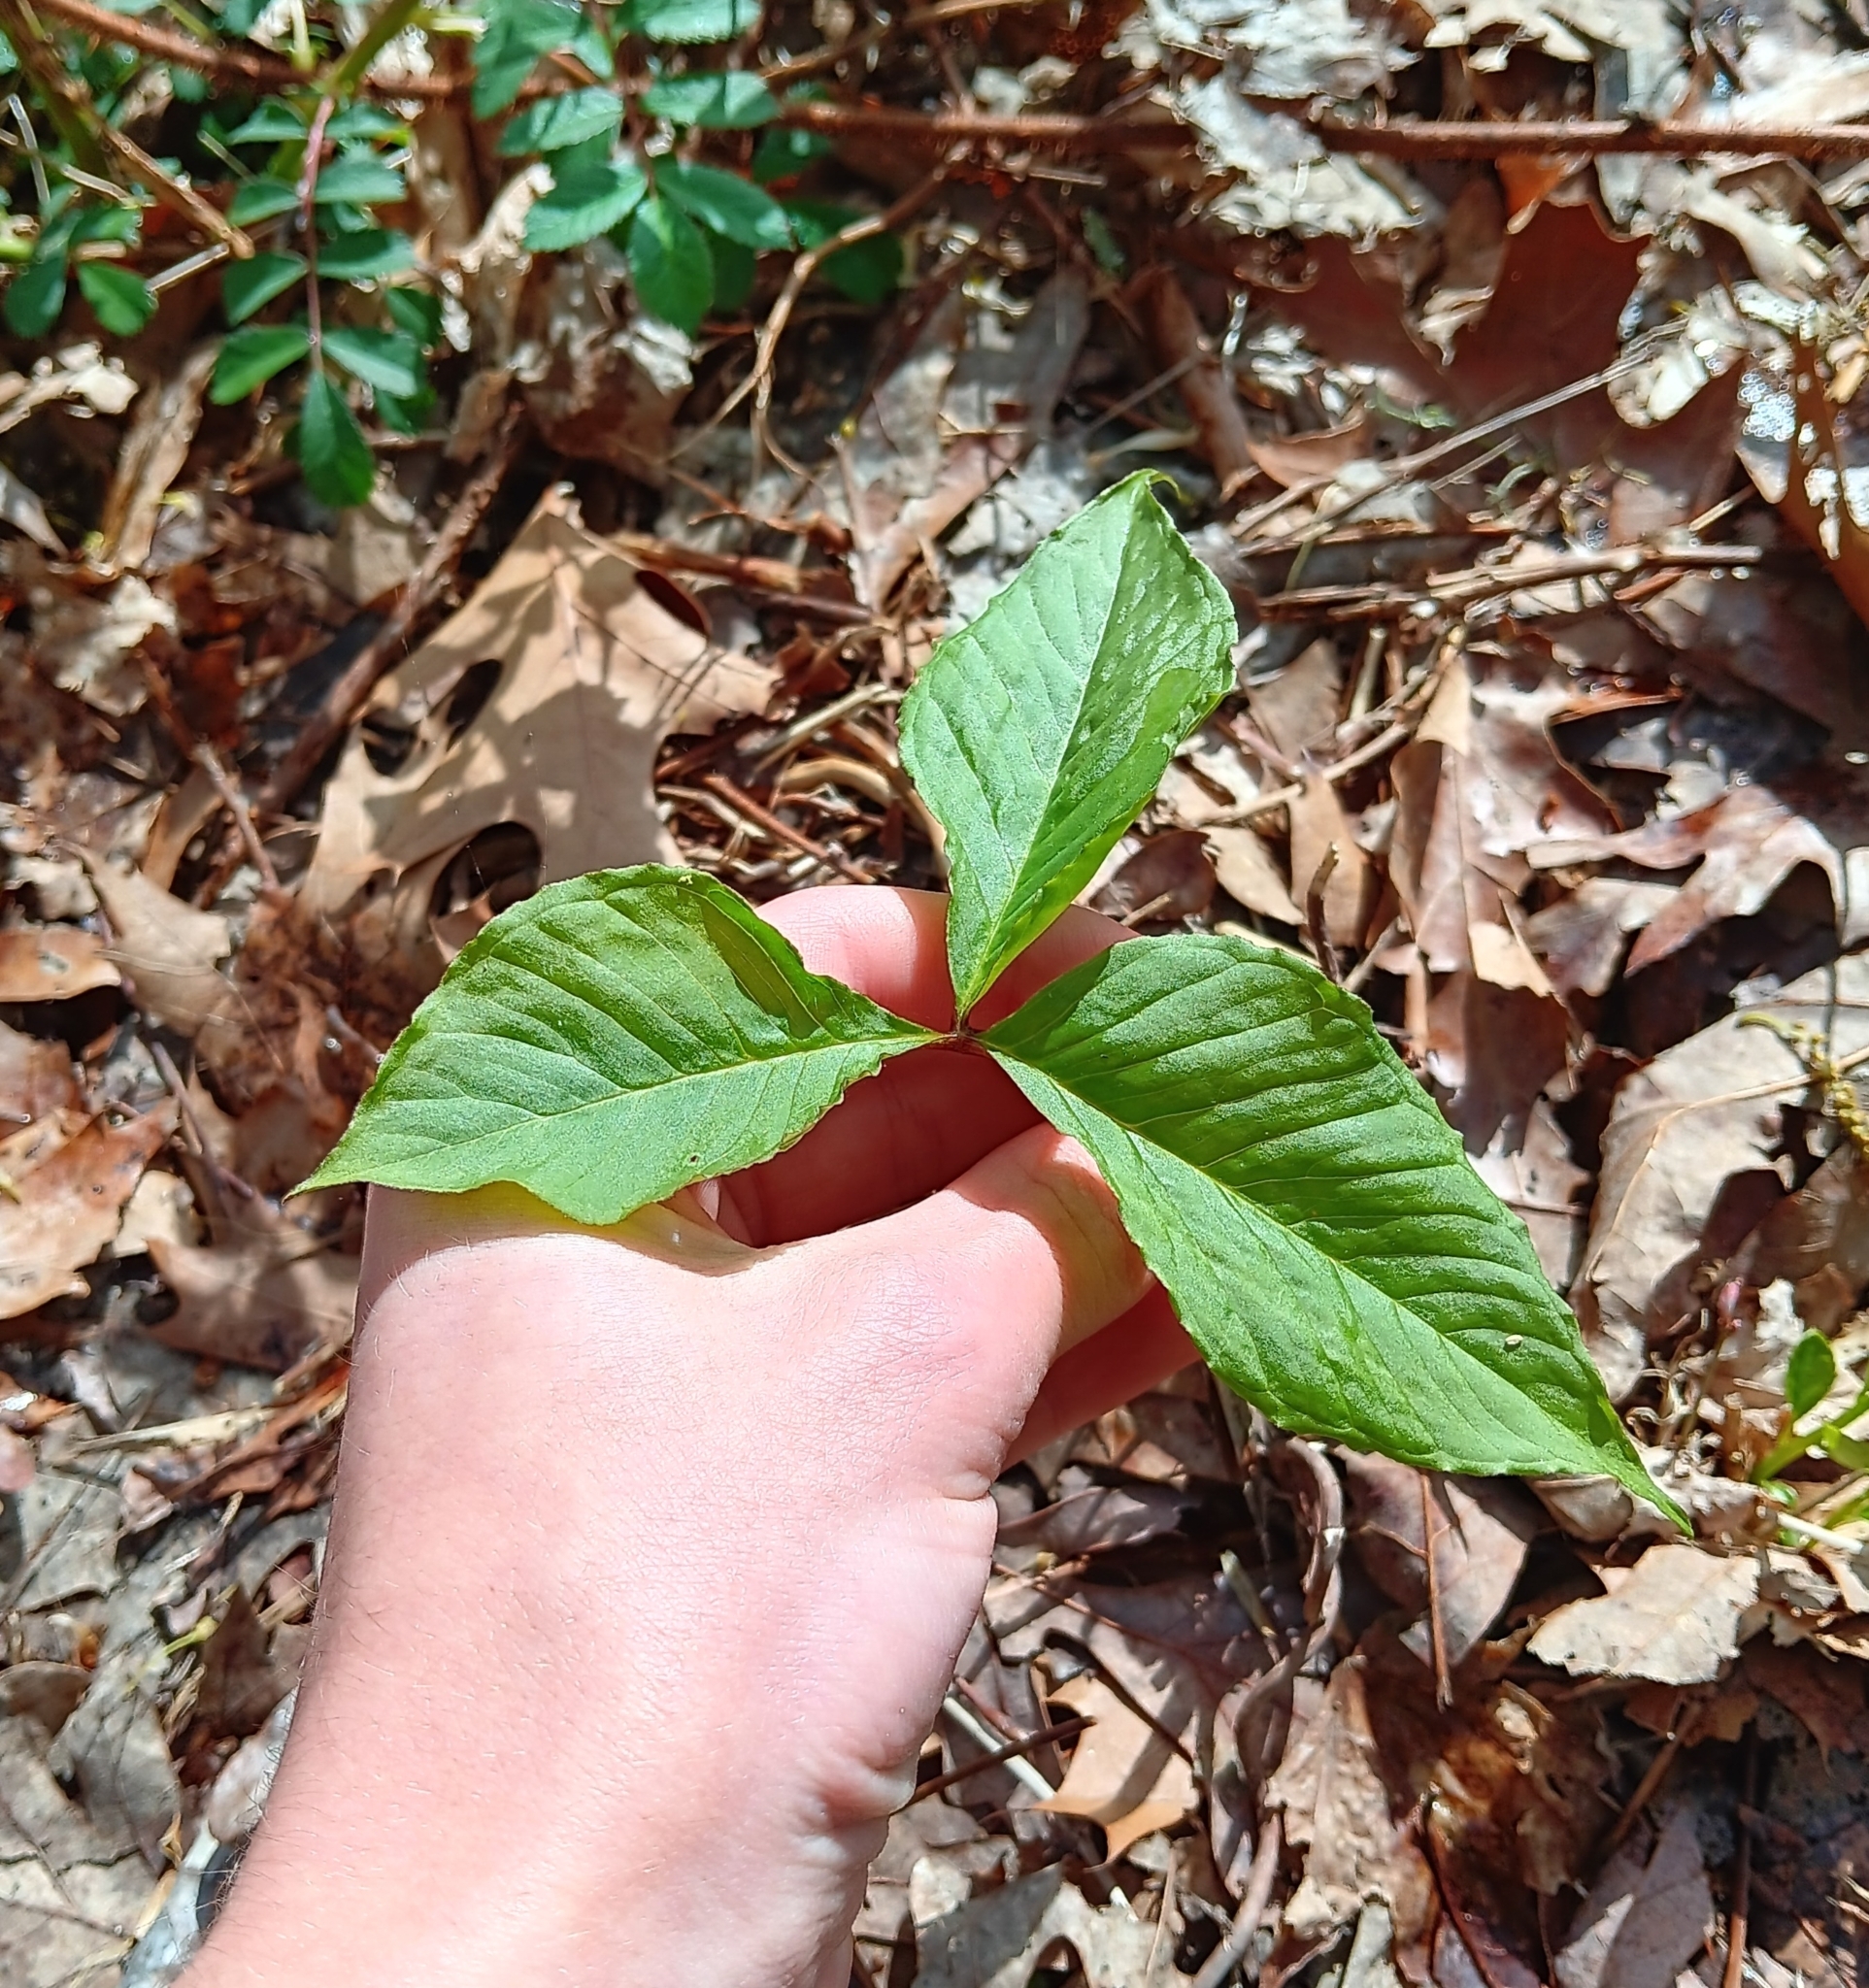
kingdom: Plantae
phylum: Tracheophyta
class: Liliopsida
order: Alismatales
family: Araceae
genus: Arisaema
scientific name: Arisaema triphyllum
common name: Jack-in-the-pulpit
